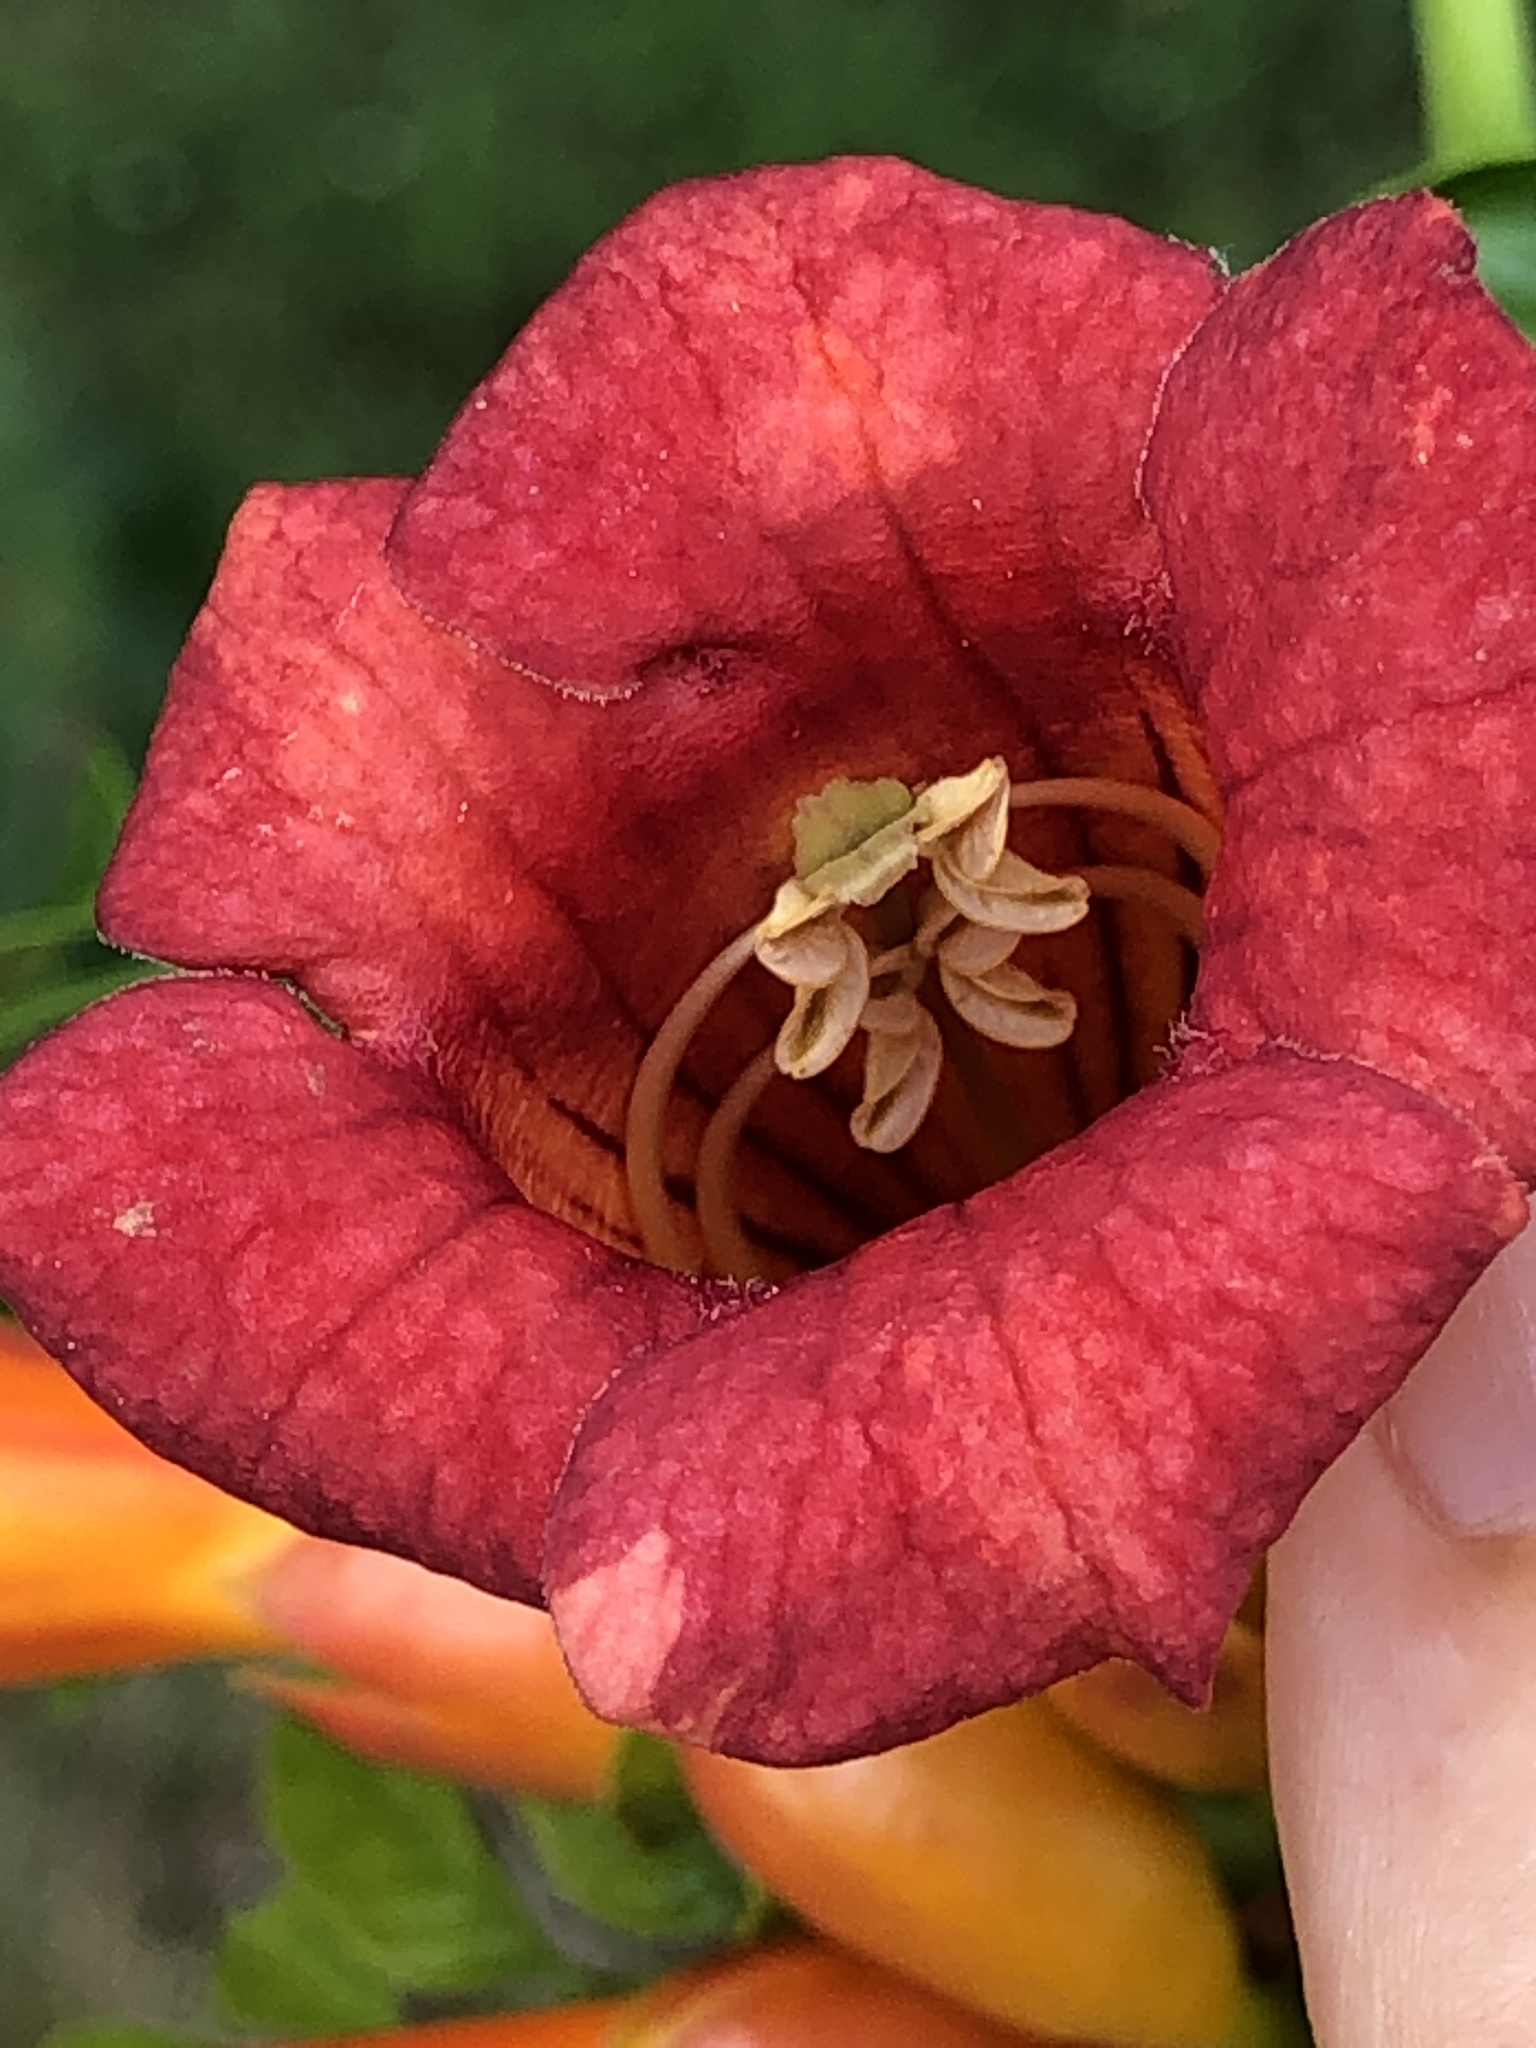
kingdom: Plantae
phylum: Tracheophyta
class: Magnoliopsida
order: Lamiales
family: Bignoniaceae
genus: Campsis
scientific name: Campsis radicans
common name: Trumpet-creeper
